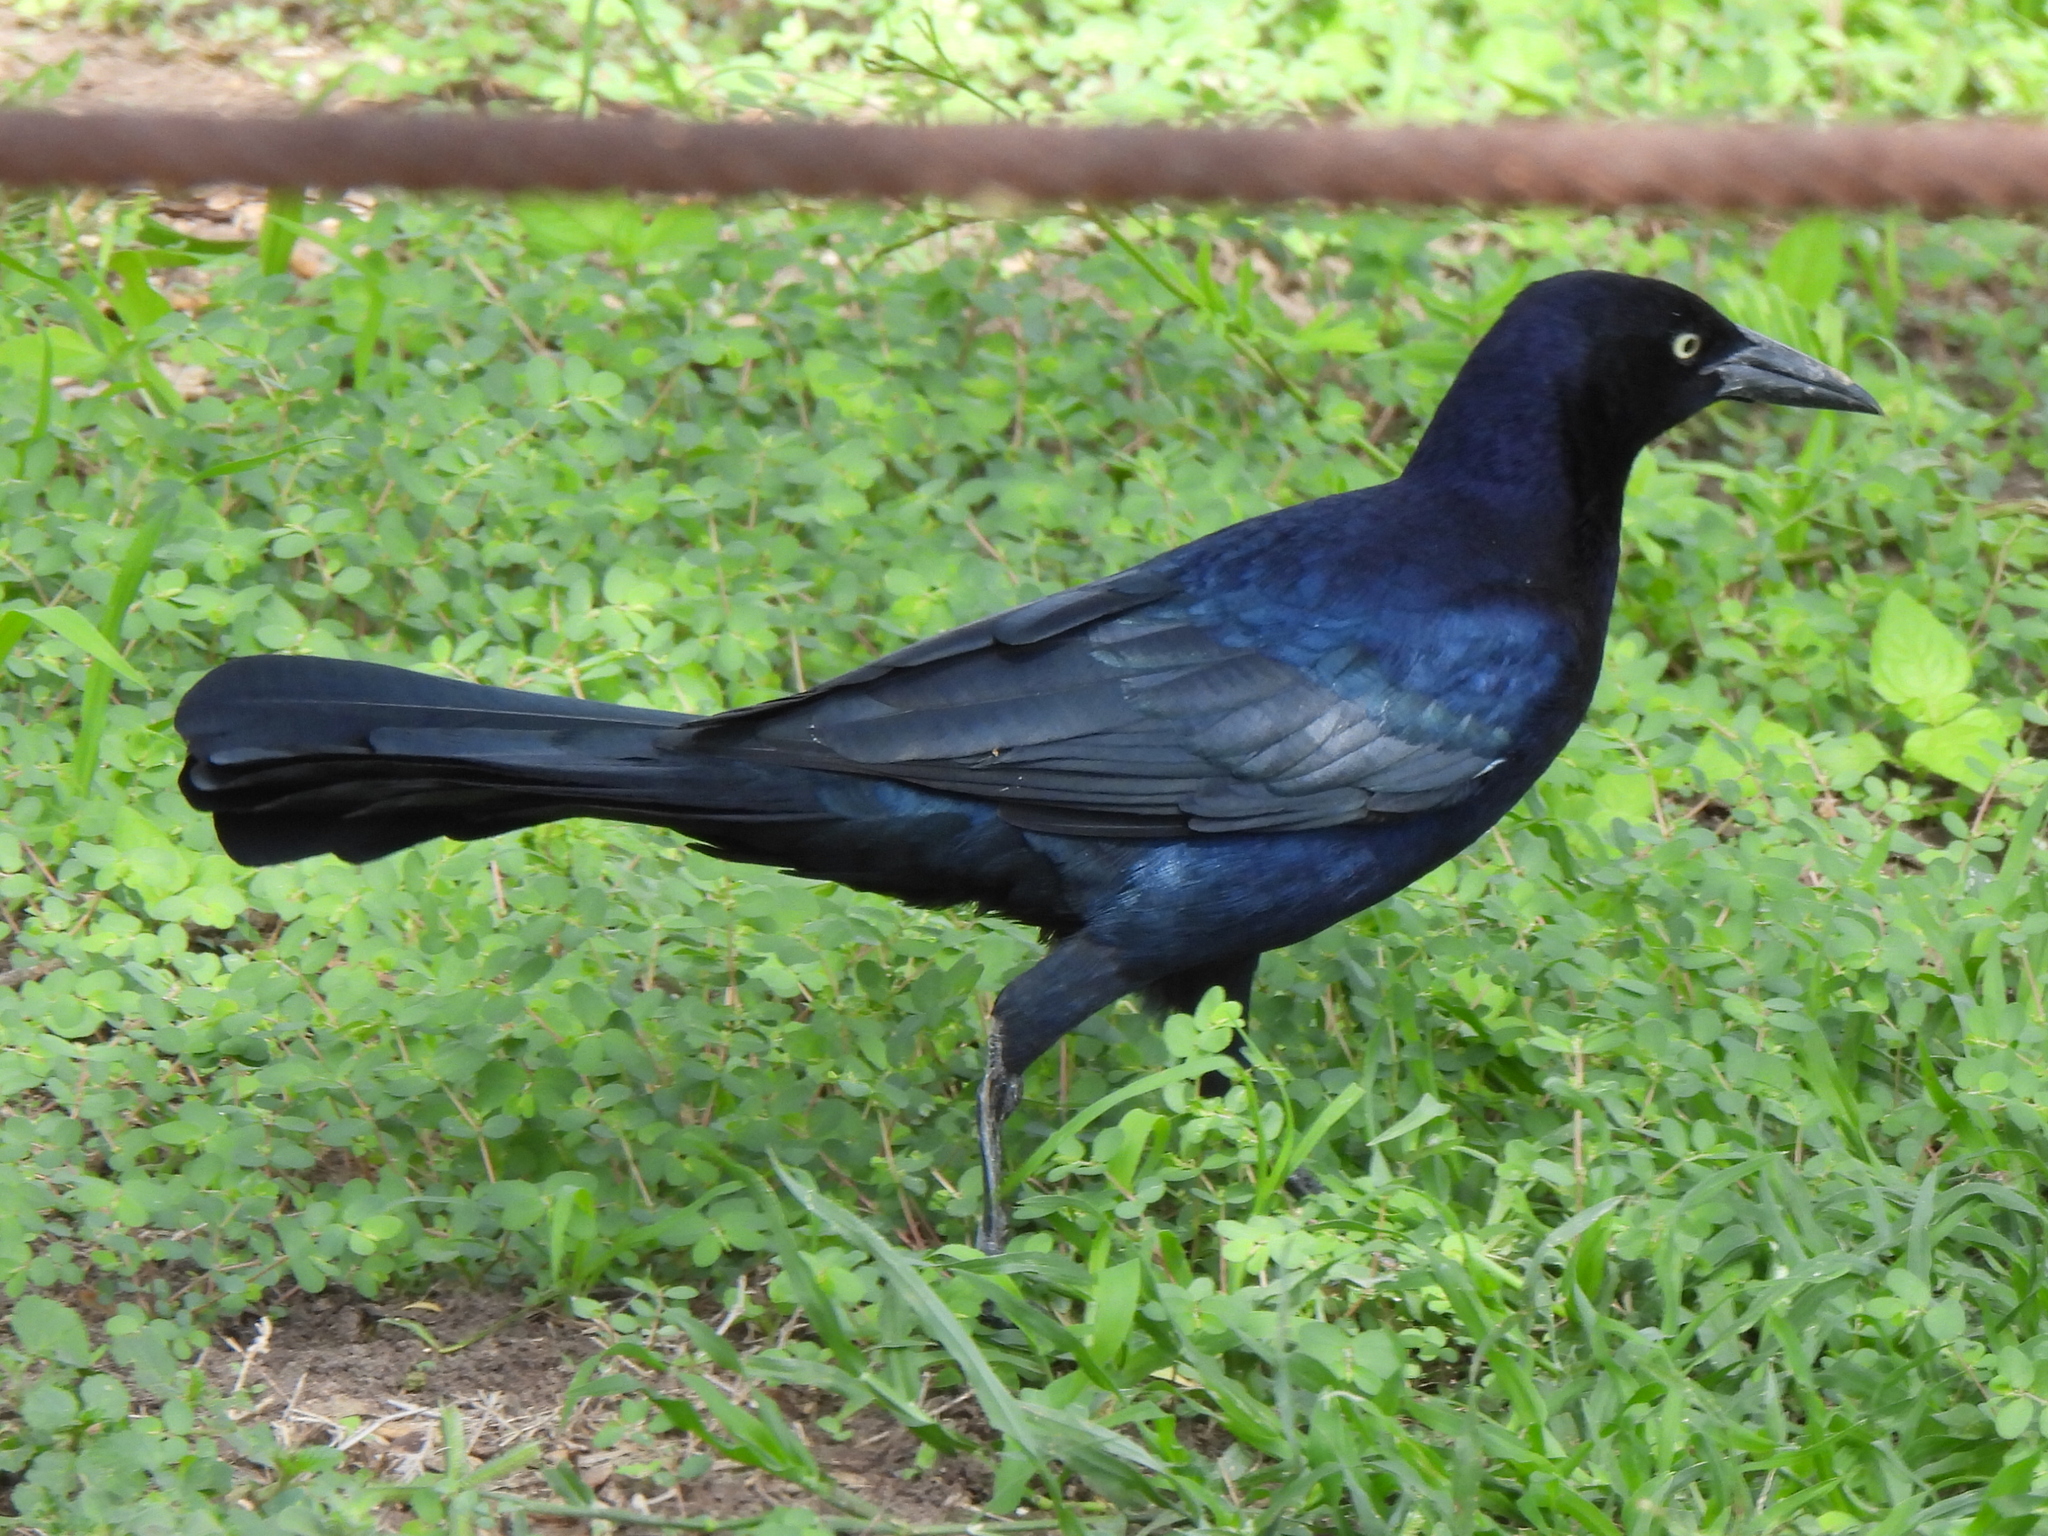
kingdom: Animalia
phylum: Chordata
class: Aves
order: Passeriformes
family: Icteridae
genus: Quiscalus
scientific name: Quiscalus mexicanus
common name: Great-tailed grackle
